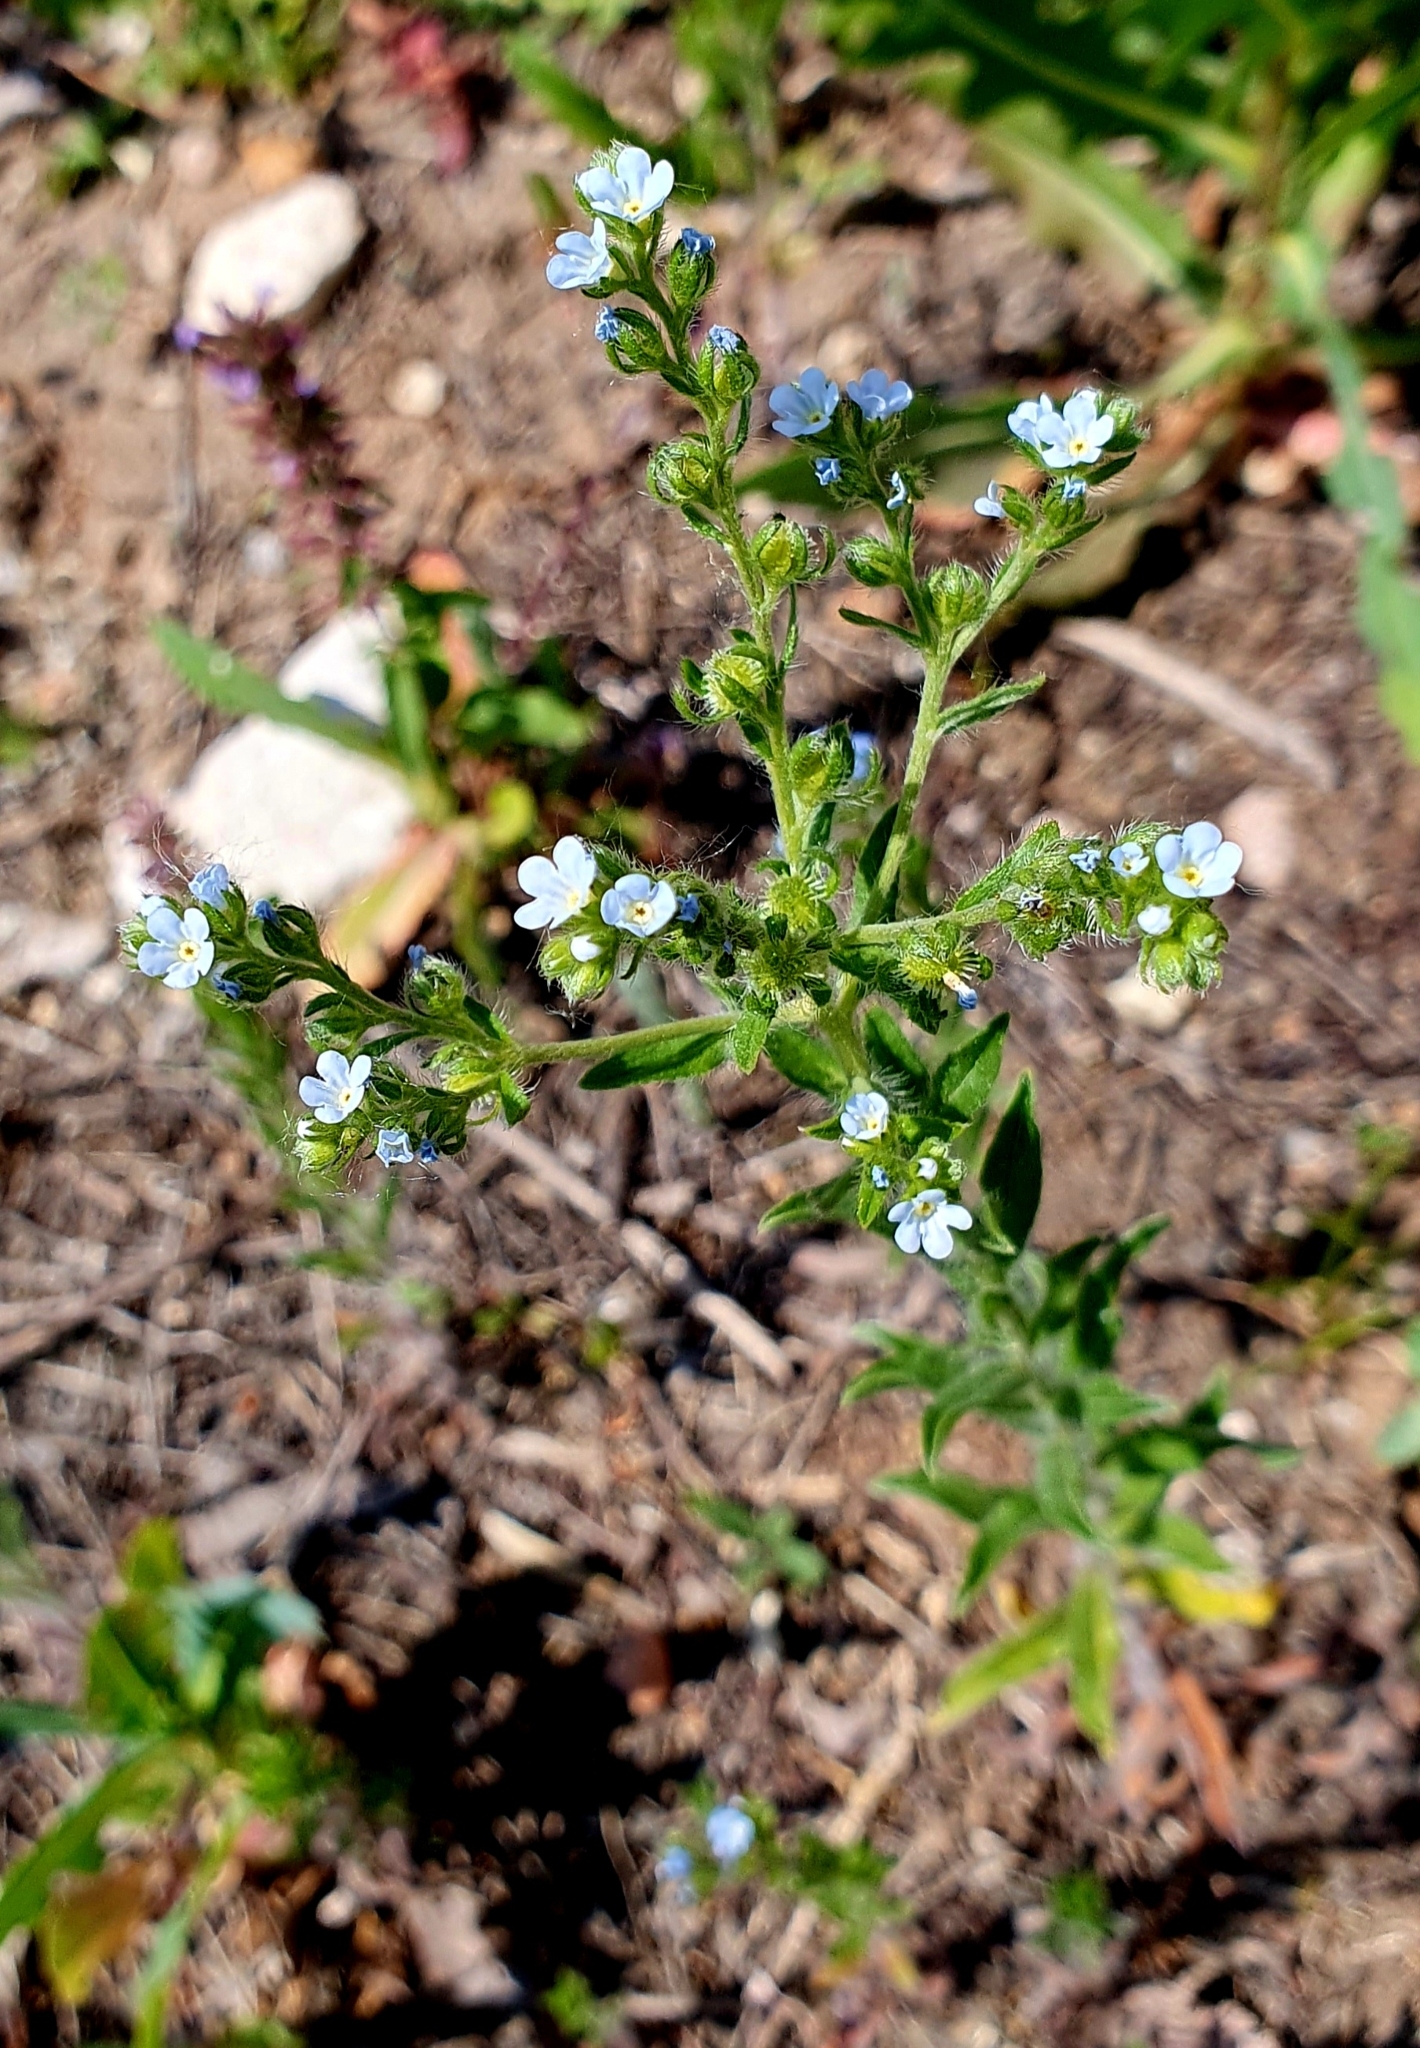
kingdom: Plantae
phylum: Tracheophyta
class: Magnoliopsida
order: Boraginales
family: Boraginaceae
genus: Lappula
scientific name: Lappula squarrosa
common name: European stickseed
